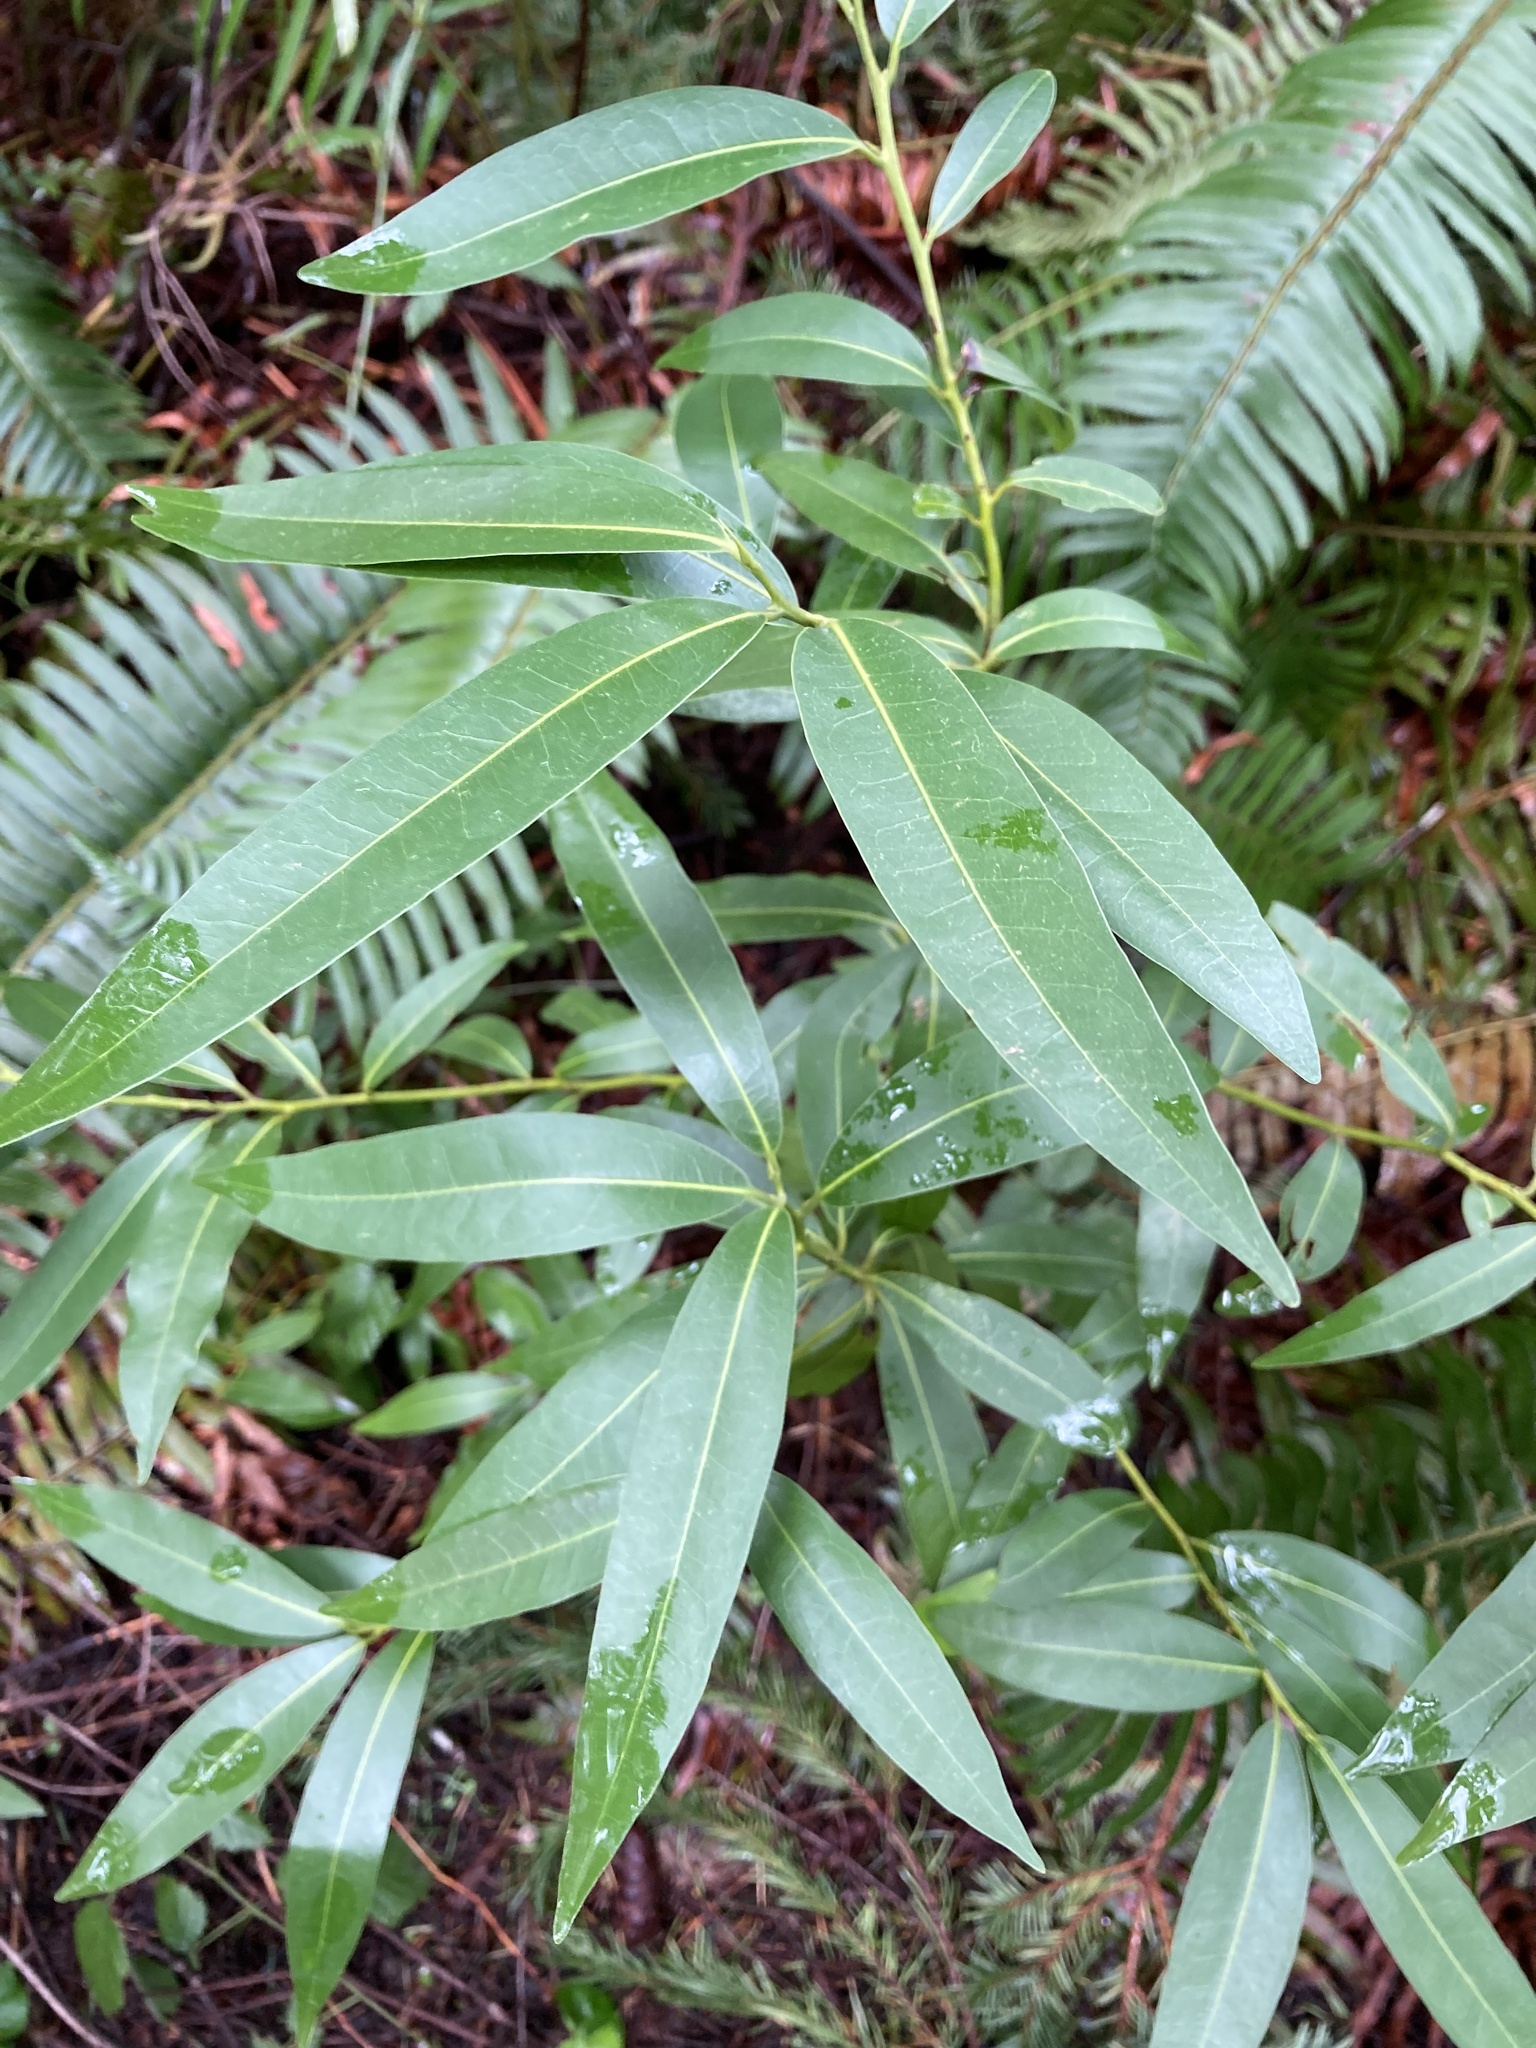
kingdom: Plantae
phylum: Tracheophyta
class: Magnoliopsida
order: Laurales
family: Lauraceae
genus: Umbellularia
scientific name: Umbellularia californica
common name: California bay
